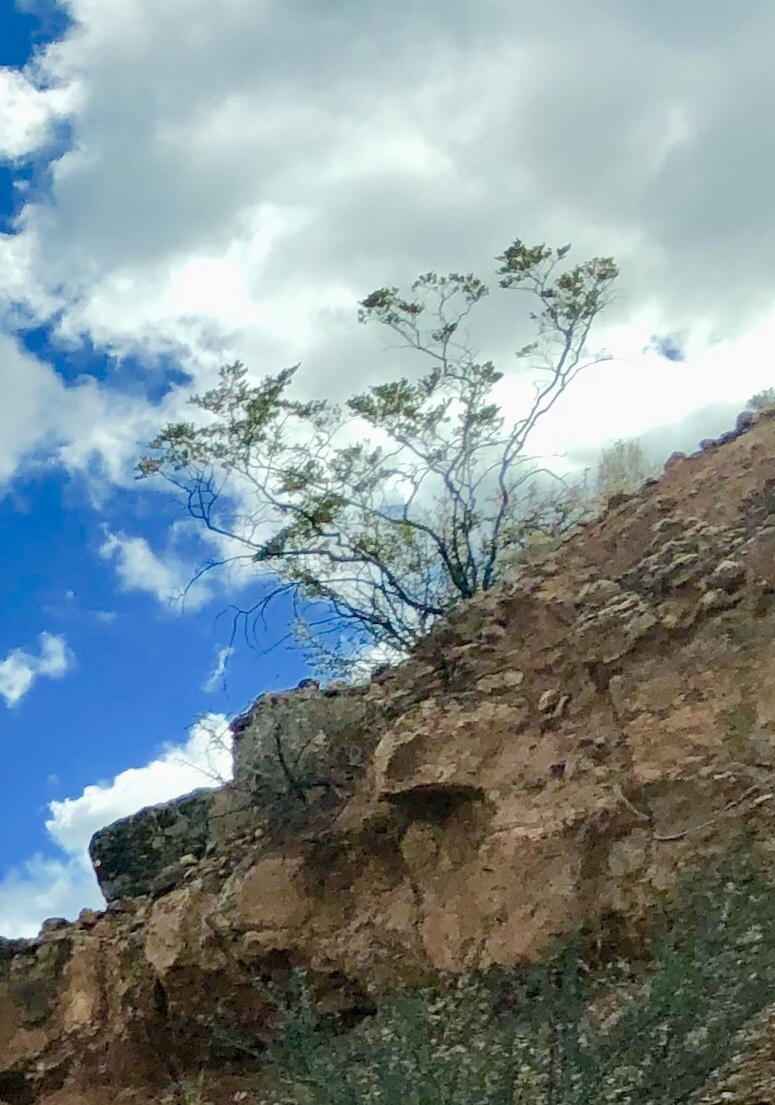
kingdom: Plantae
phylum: Tracheophyta
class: Magnoliopsida
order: Zygophyllales
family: Zygophyllaceae
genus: Larrea
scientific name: Larrea tridentata
